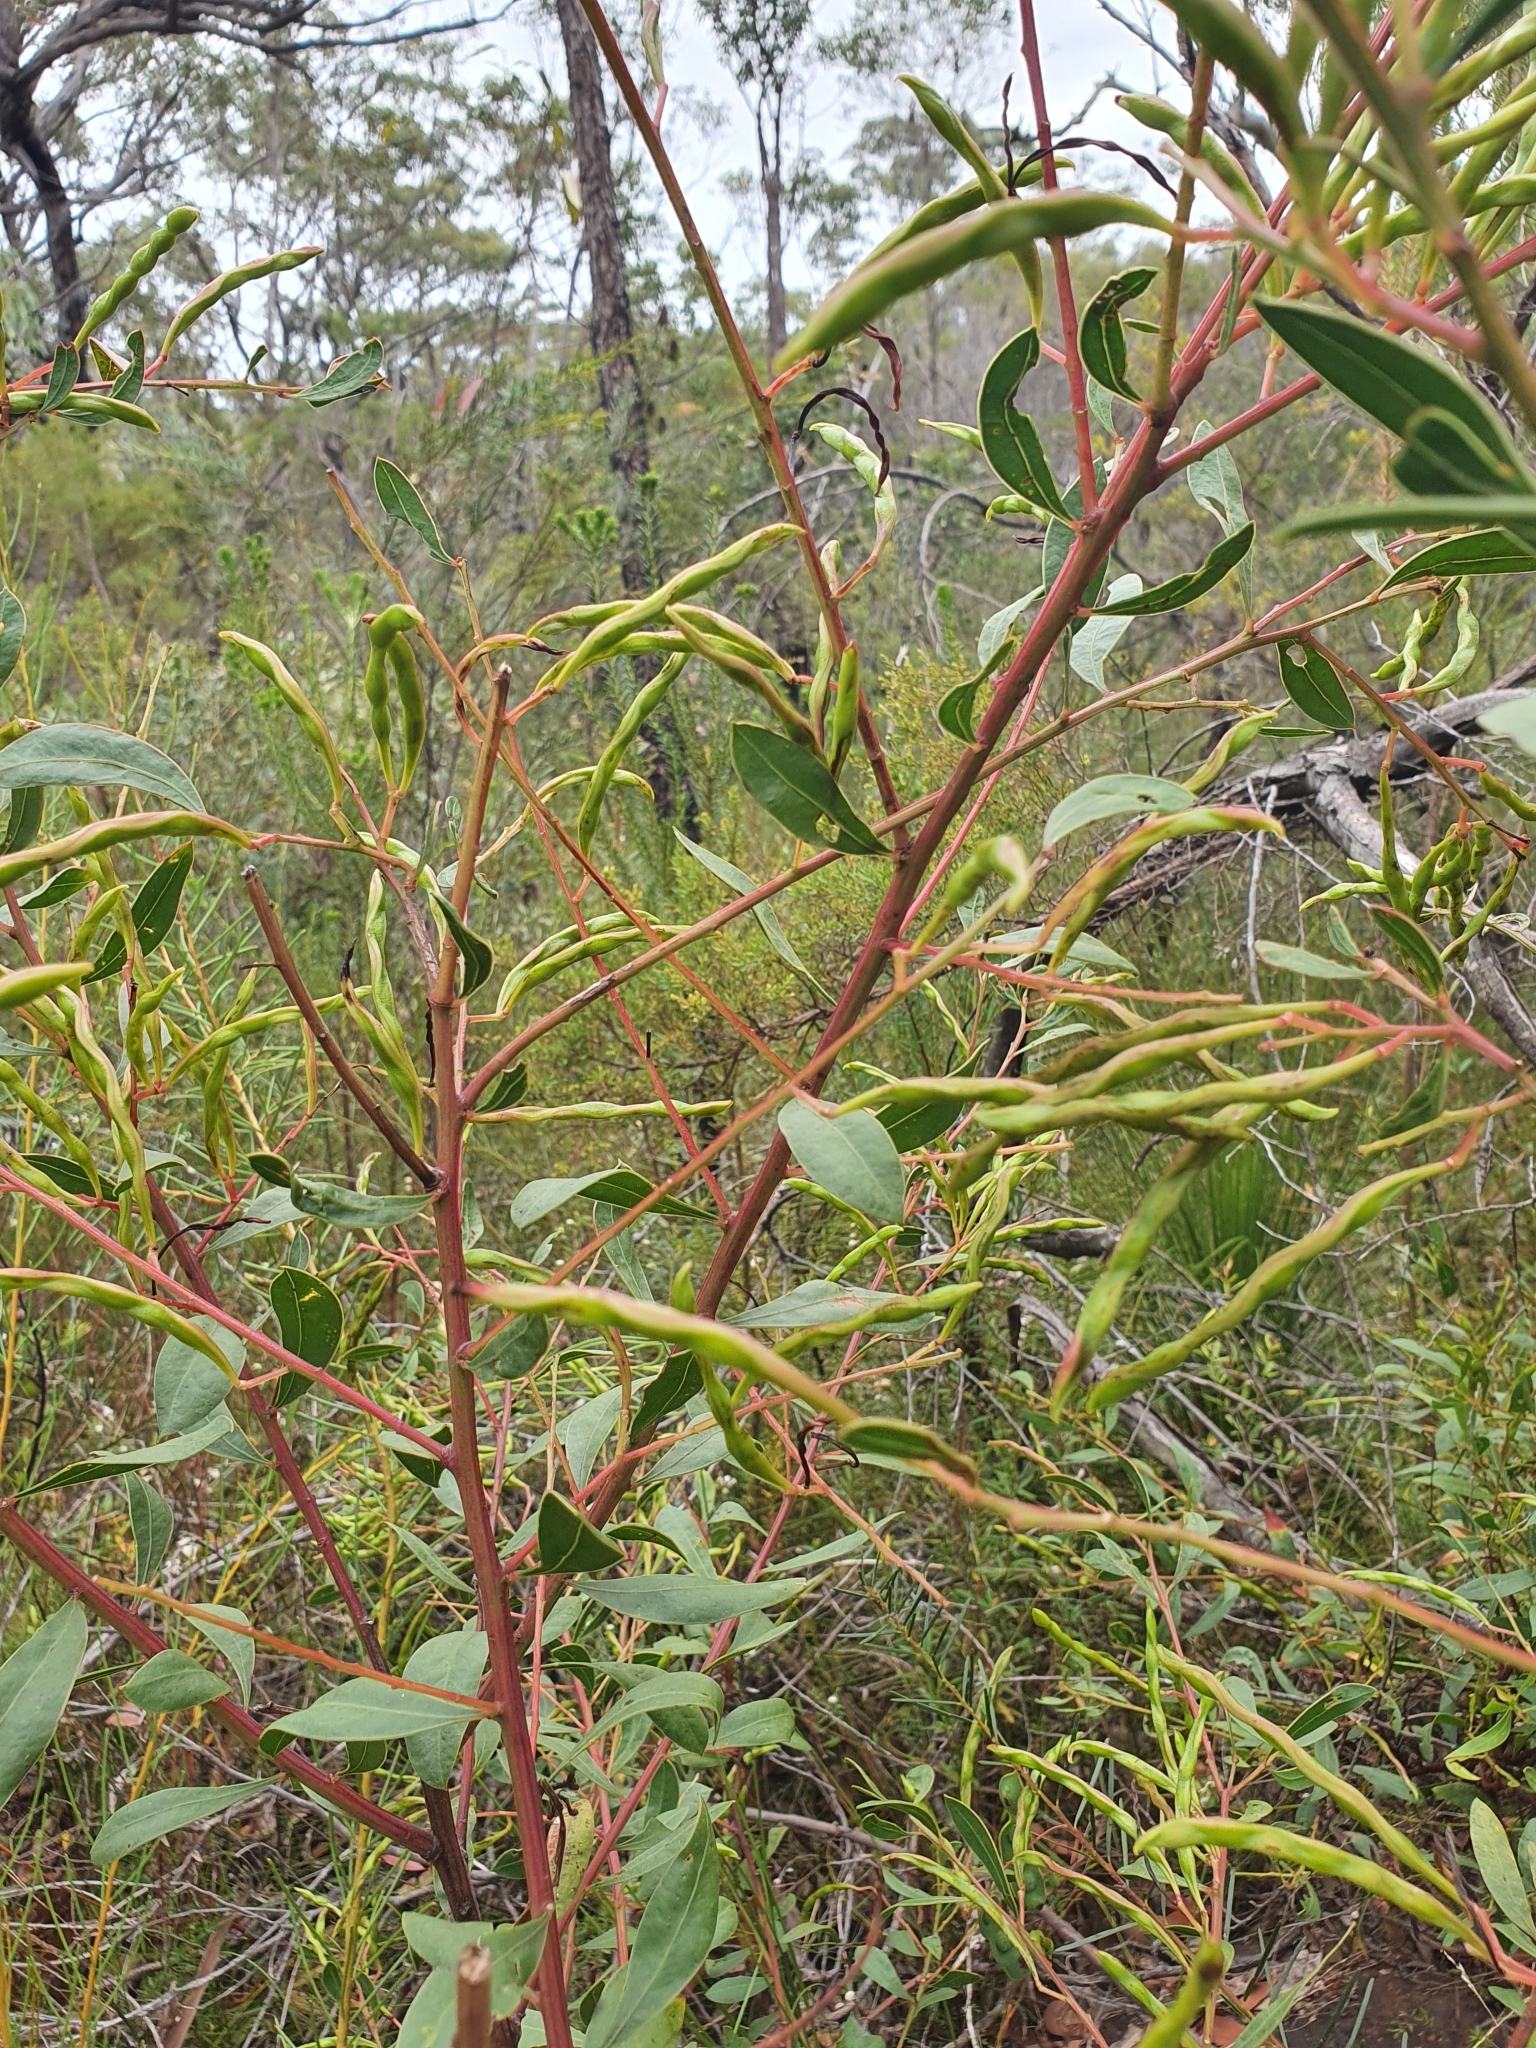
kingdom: Plantae
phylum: Tracheophyta
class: Magnoliopsida
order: Fabales
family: Fabaceae
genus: Acacia
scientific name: Acacia myrtifolia
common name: Myrtle wattle
